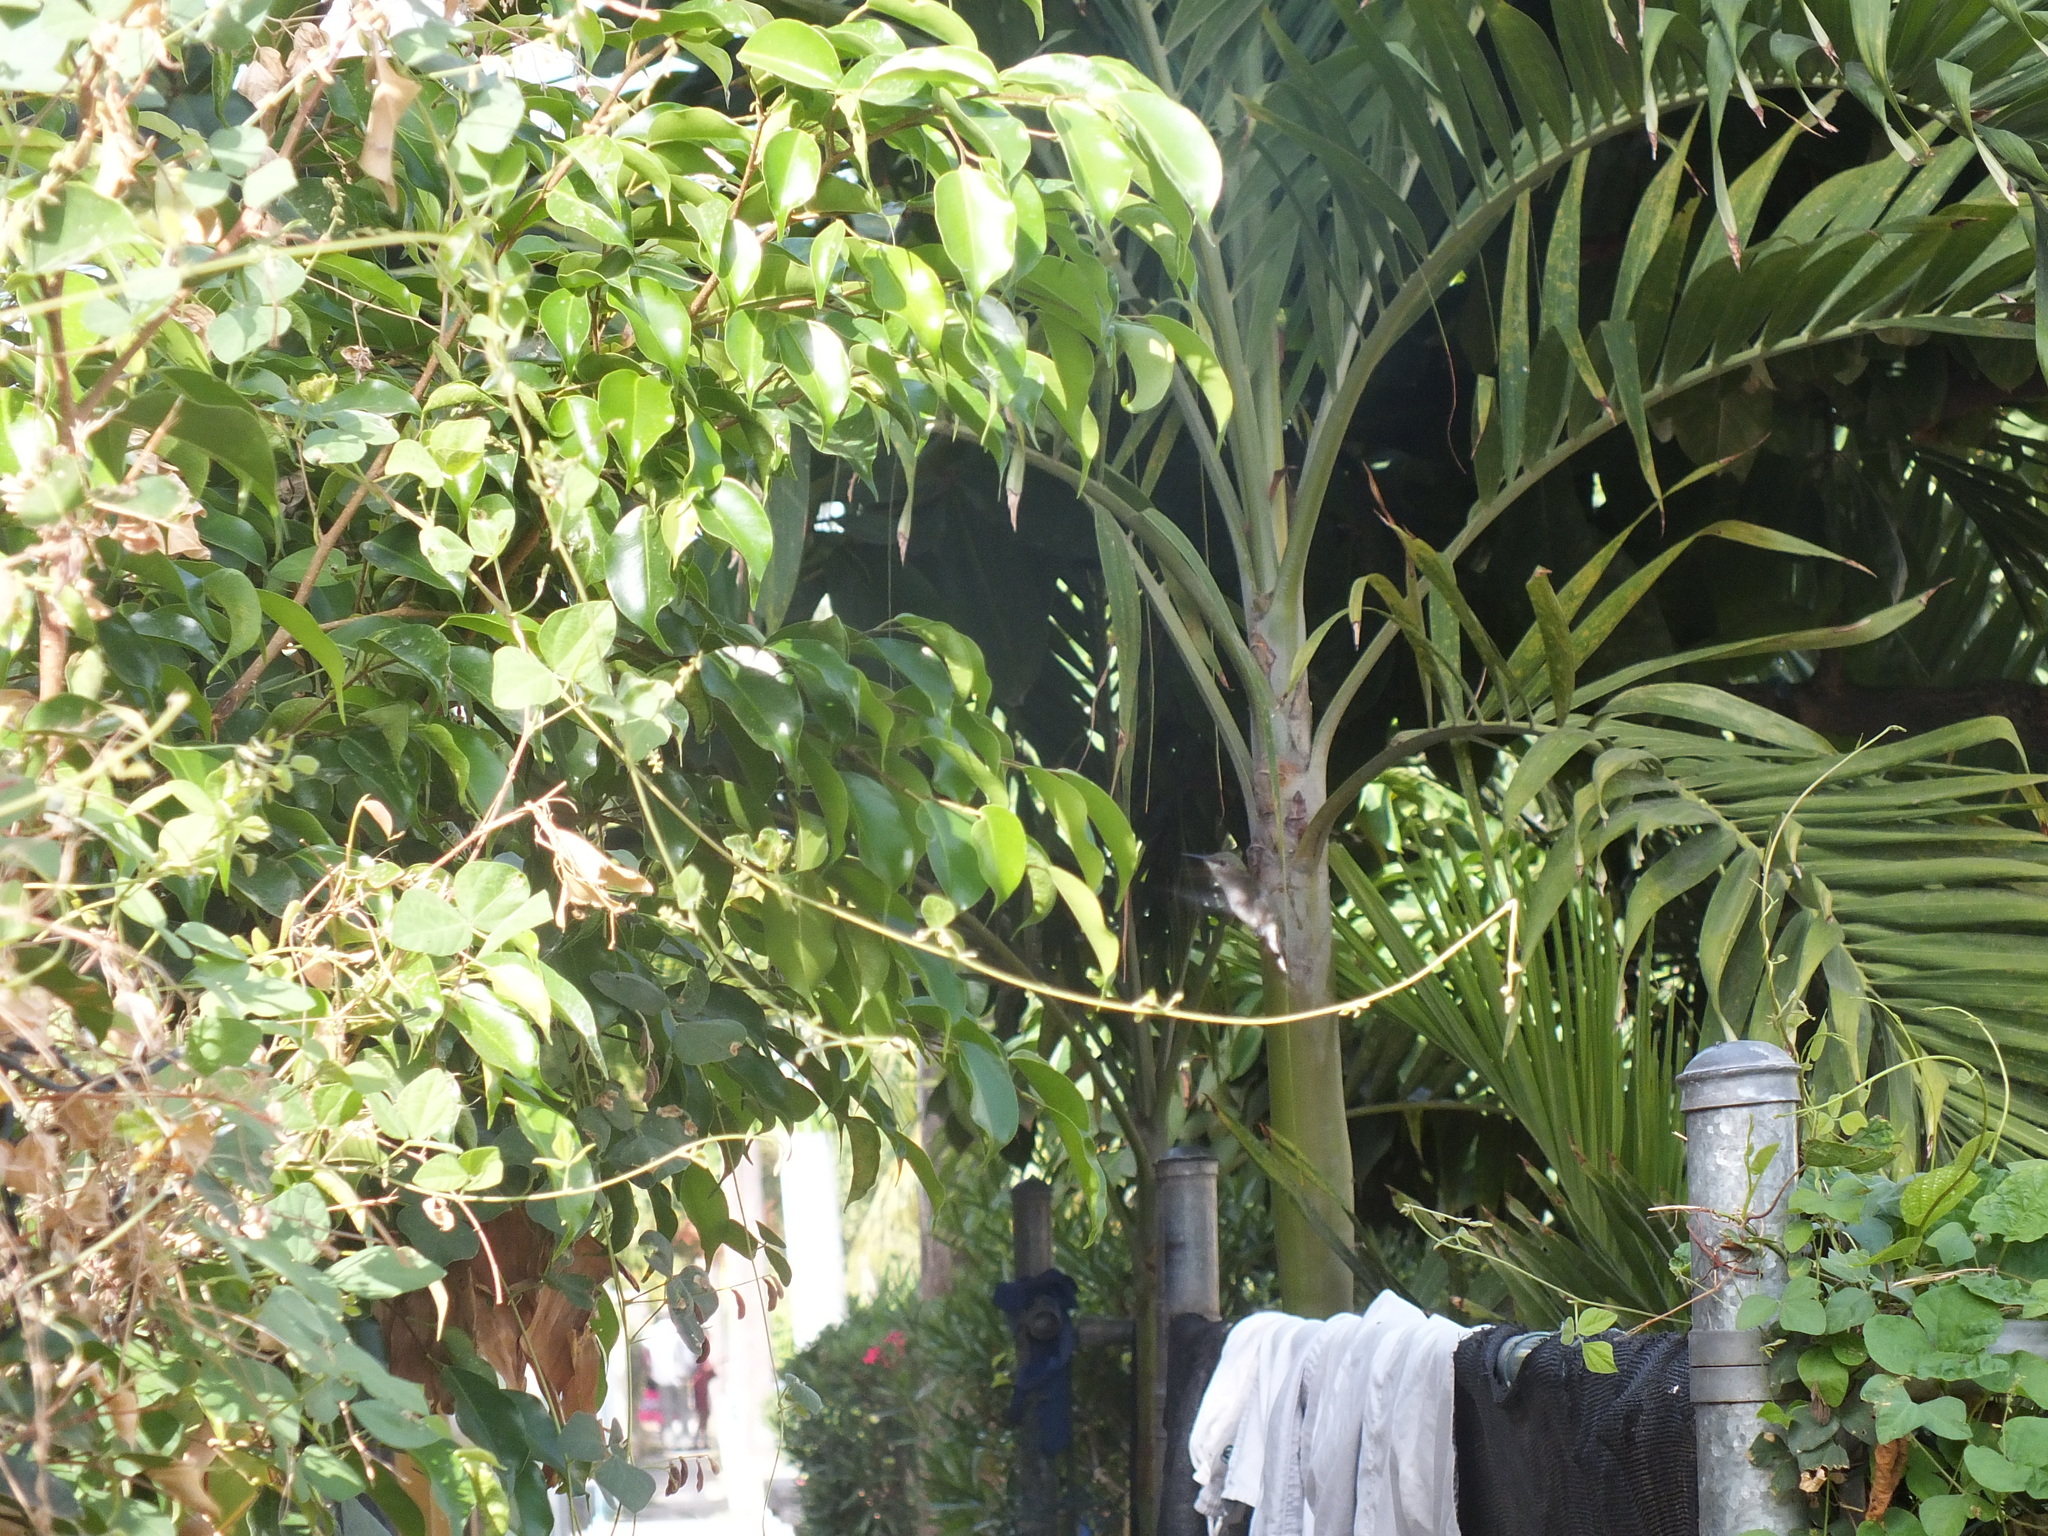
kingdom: Animalia
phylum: Chordata
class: Aves
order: Apodiformes
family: Trochilidae
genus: Mellisuga
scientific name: Mellisuga minima
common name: Vervain hummingbird
